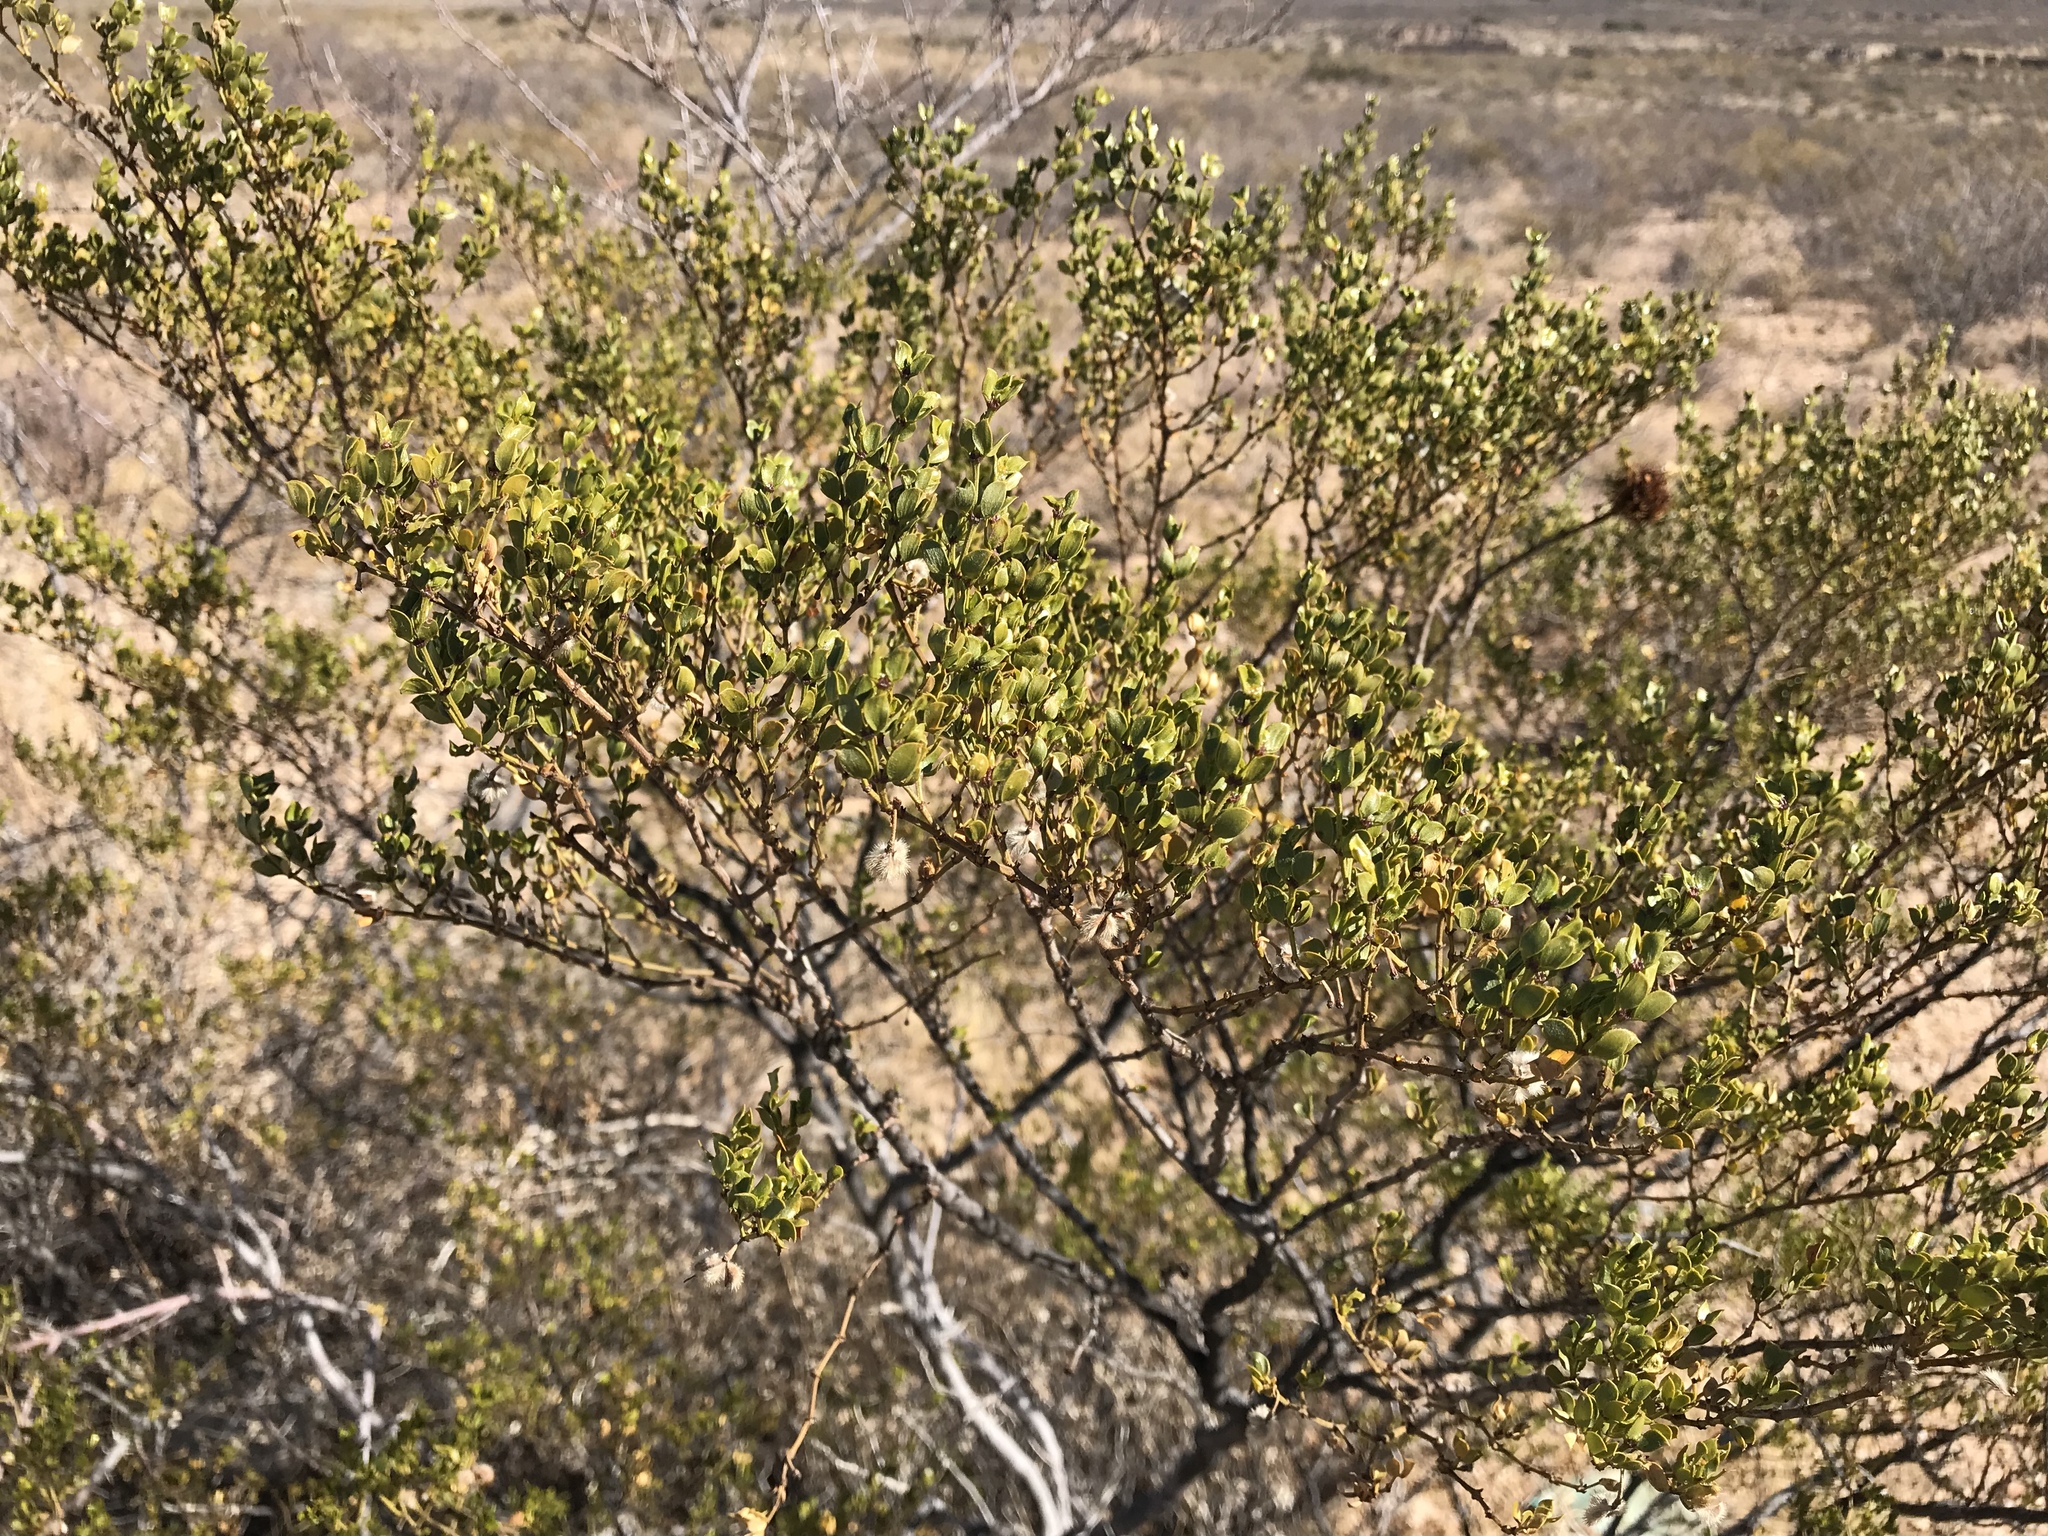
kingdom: Plantae
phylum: Tracheophyta
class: Magnoliopsida
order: Zygophyllales
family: Zygophyllaceae
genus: Larrea
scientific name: Larrea tridentata
